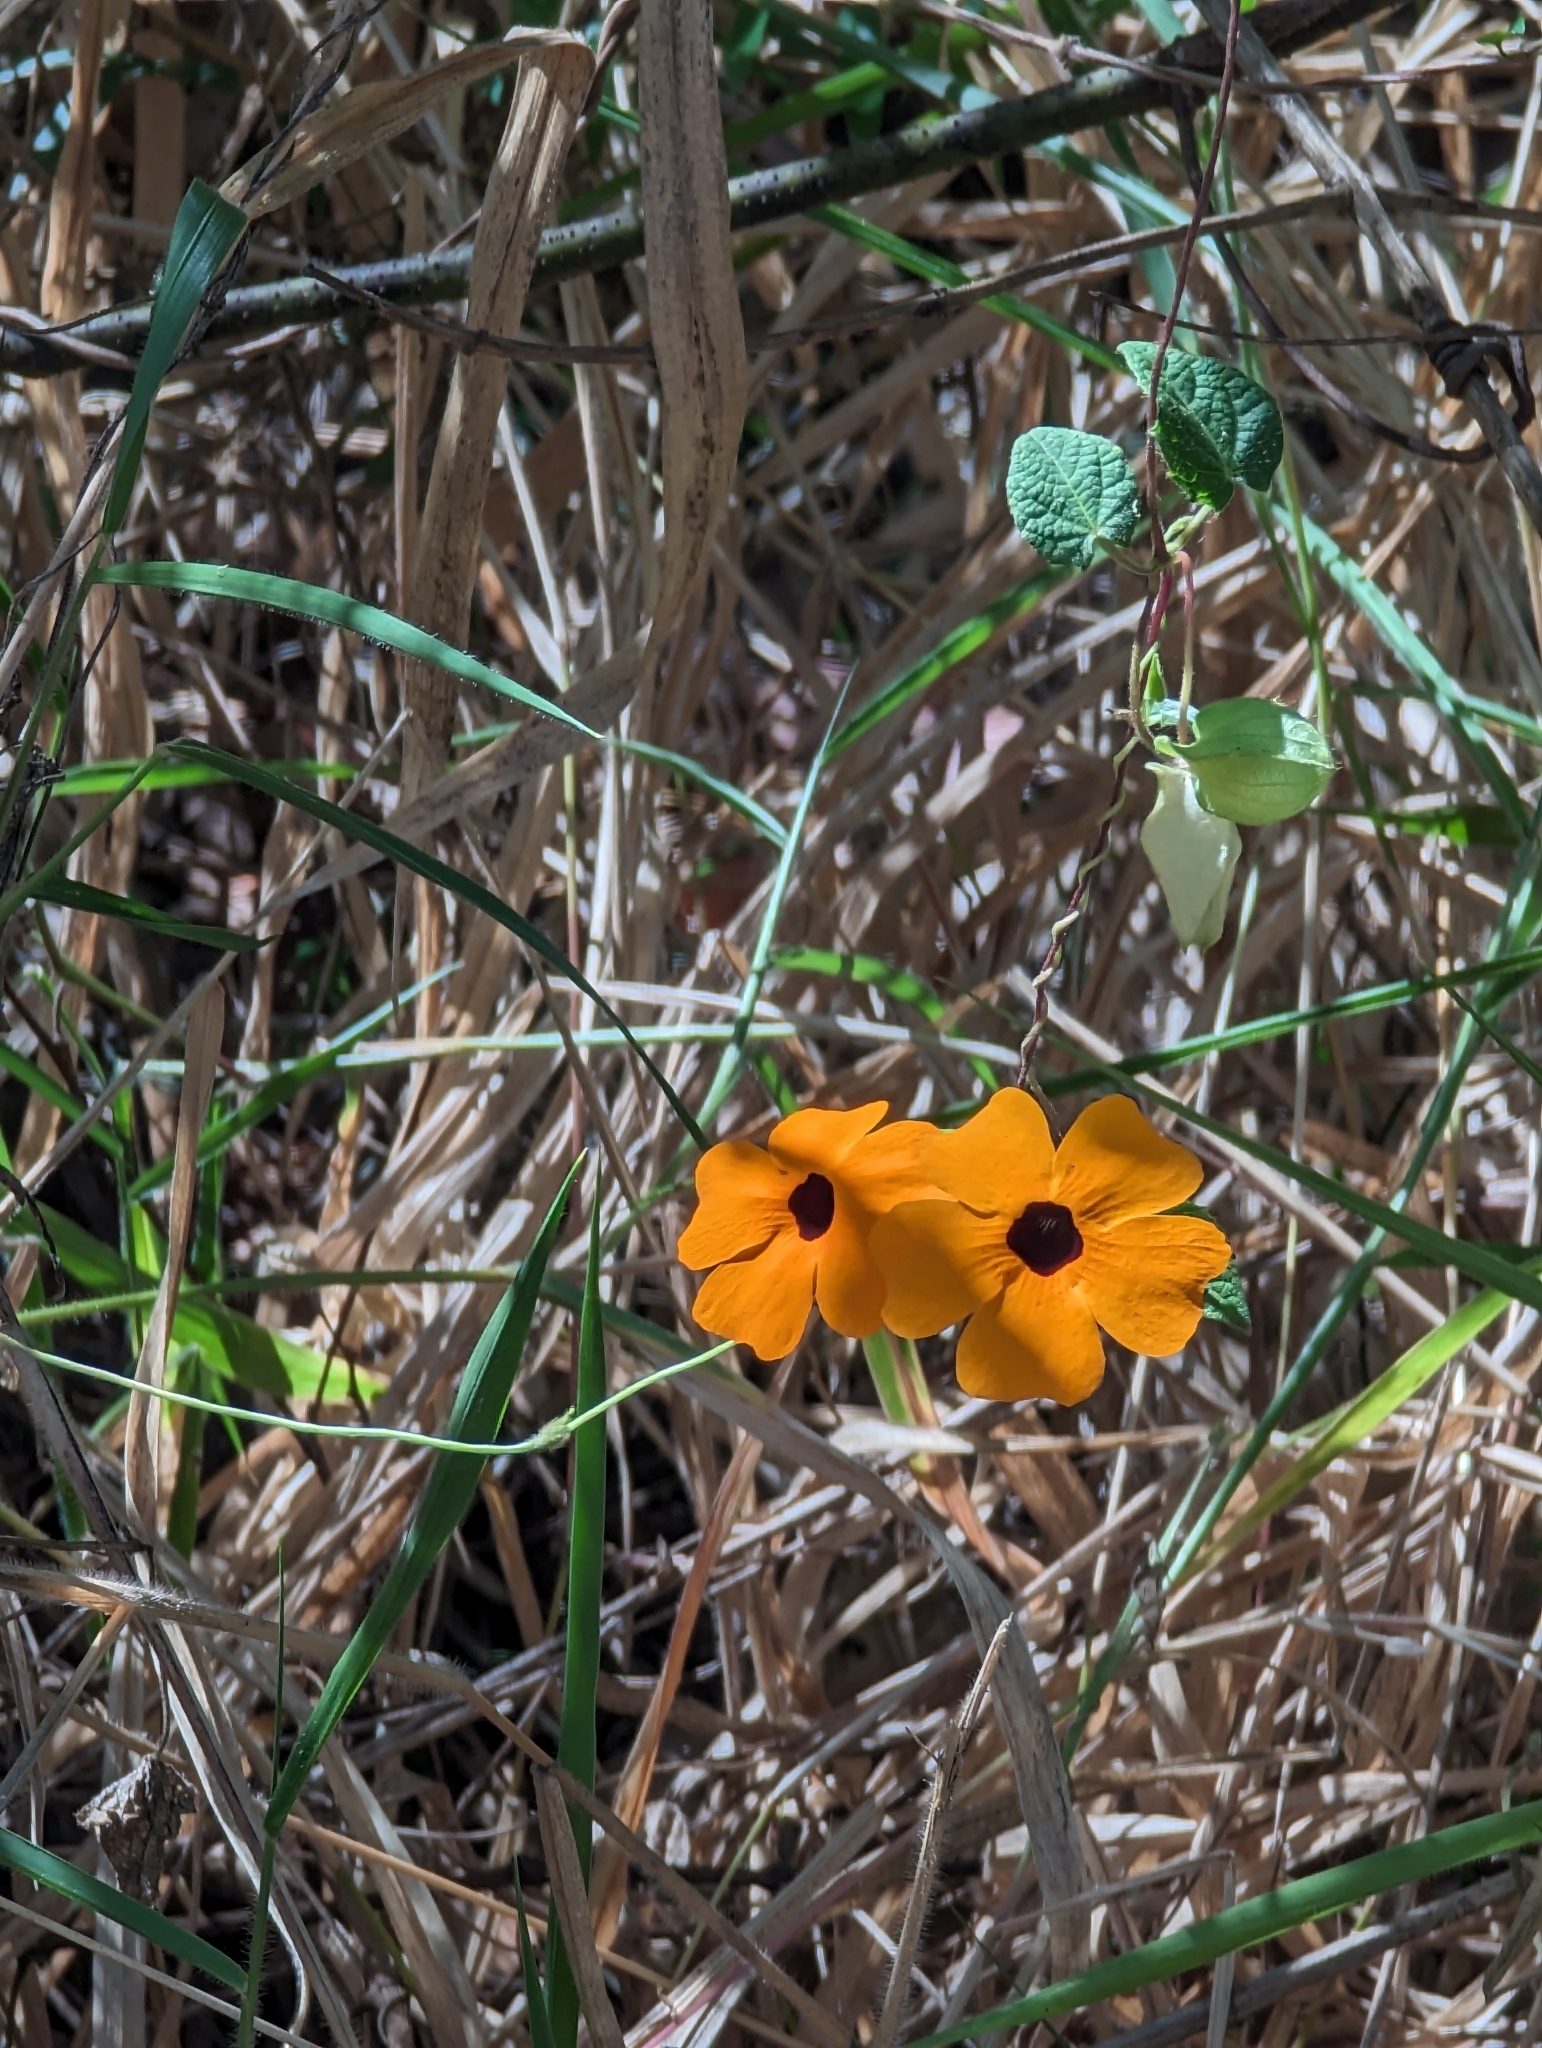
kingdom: Plantae
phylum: Tracheophyta
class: Magnoliopsida
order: Lamiales
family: Acanthaceae
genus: Thunbergia
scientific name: Thunbergia alata
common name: Blackeyed susan vine
